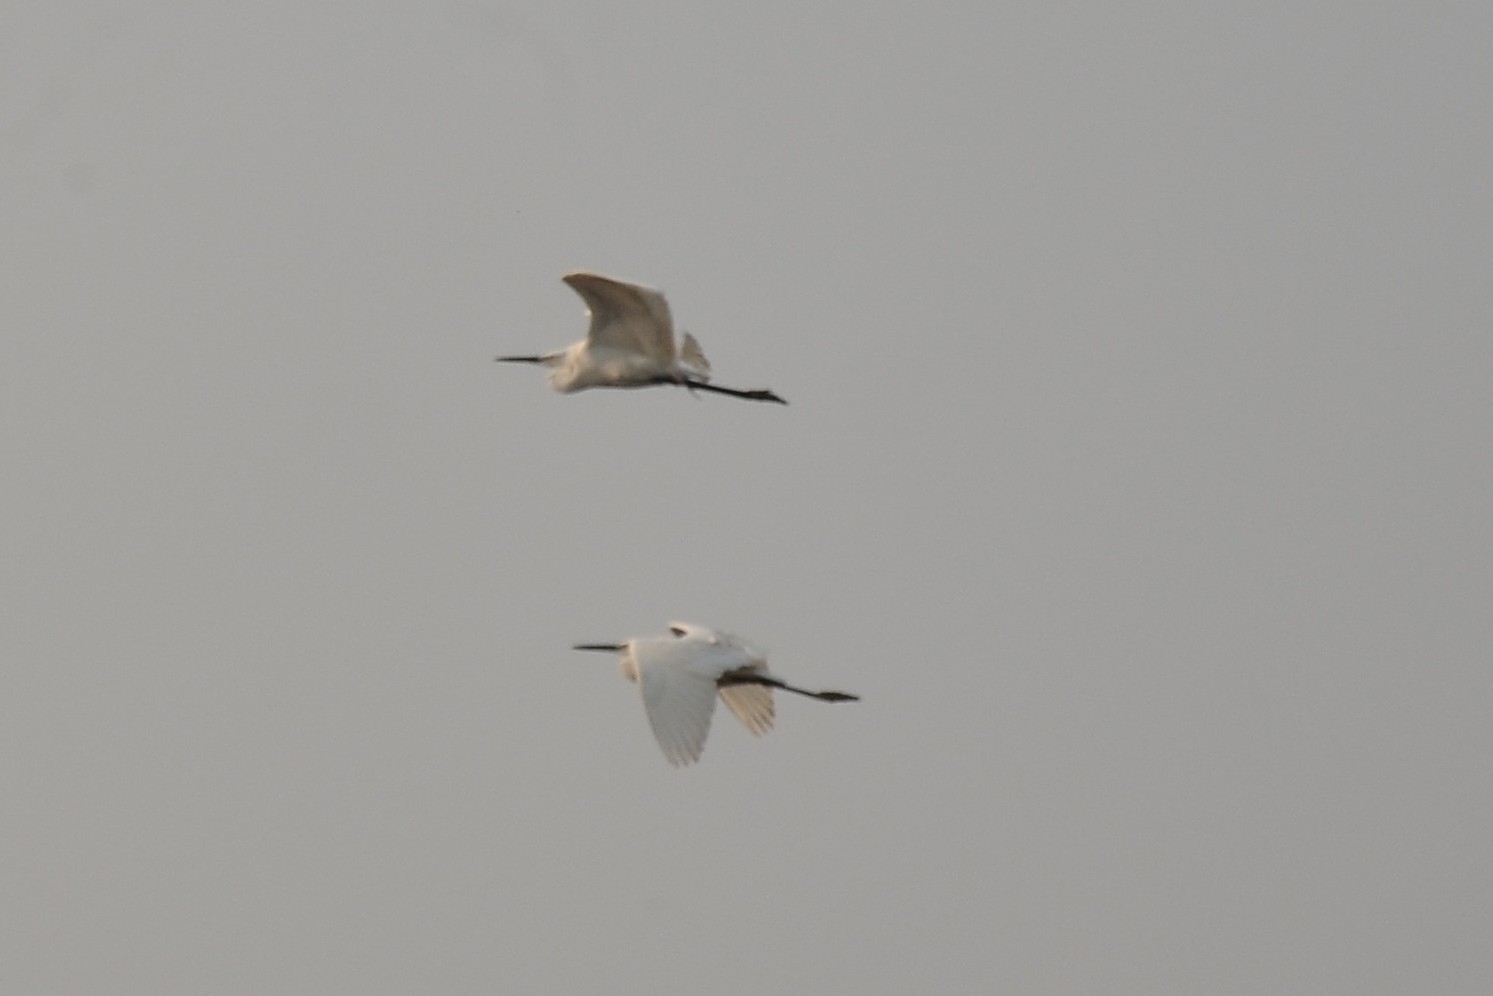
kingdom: Animalia
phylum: Chordata
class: Aves
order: Pelecaniformes
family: Ardeidae
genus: Egretta
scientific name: Egretta garzetta
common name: Little egret
